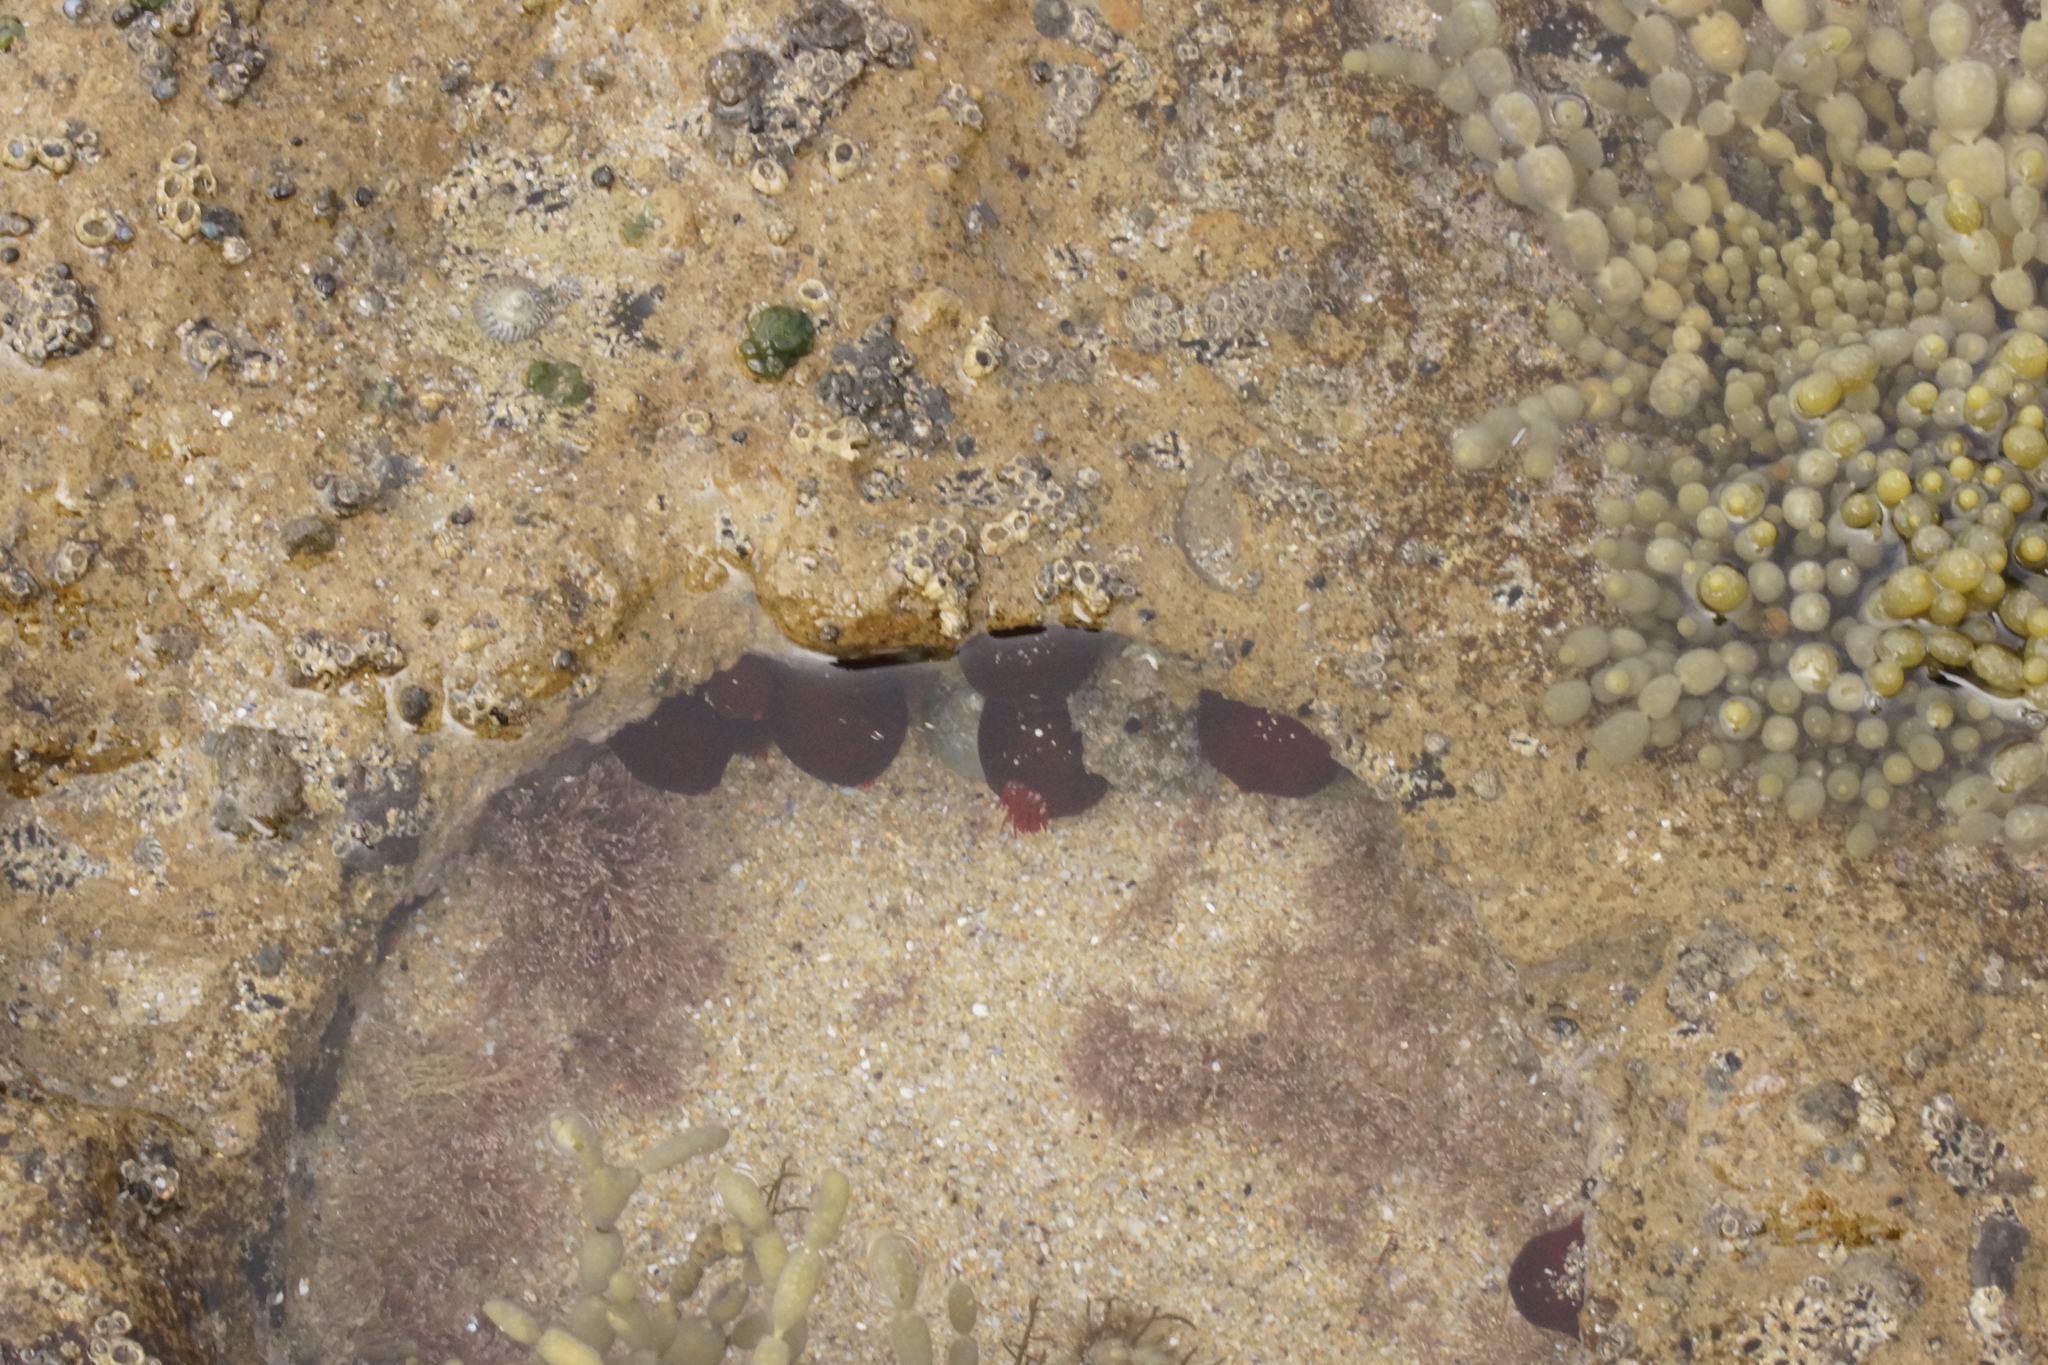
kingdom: Animalia
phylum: Cnidaria
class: Anthozoa
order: Actiniaria
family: Actiniidae
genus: Actinia
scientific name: Actinia tenebrosa
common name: Waratah anemone
